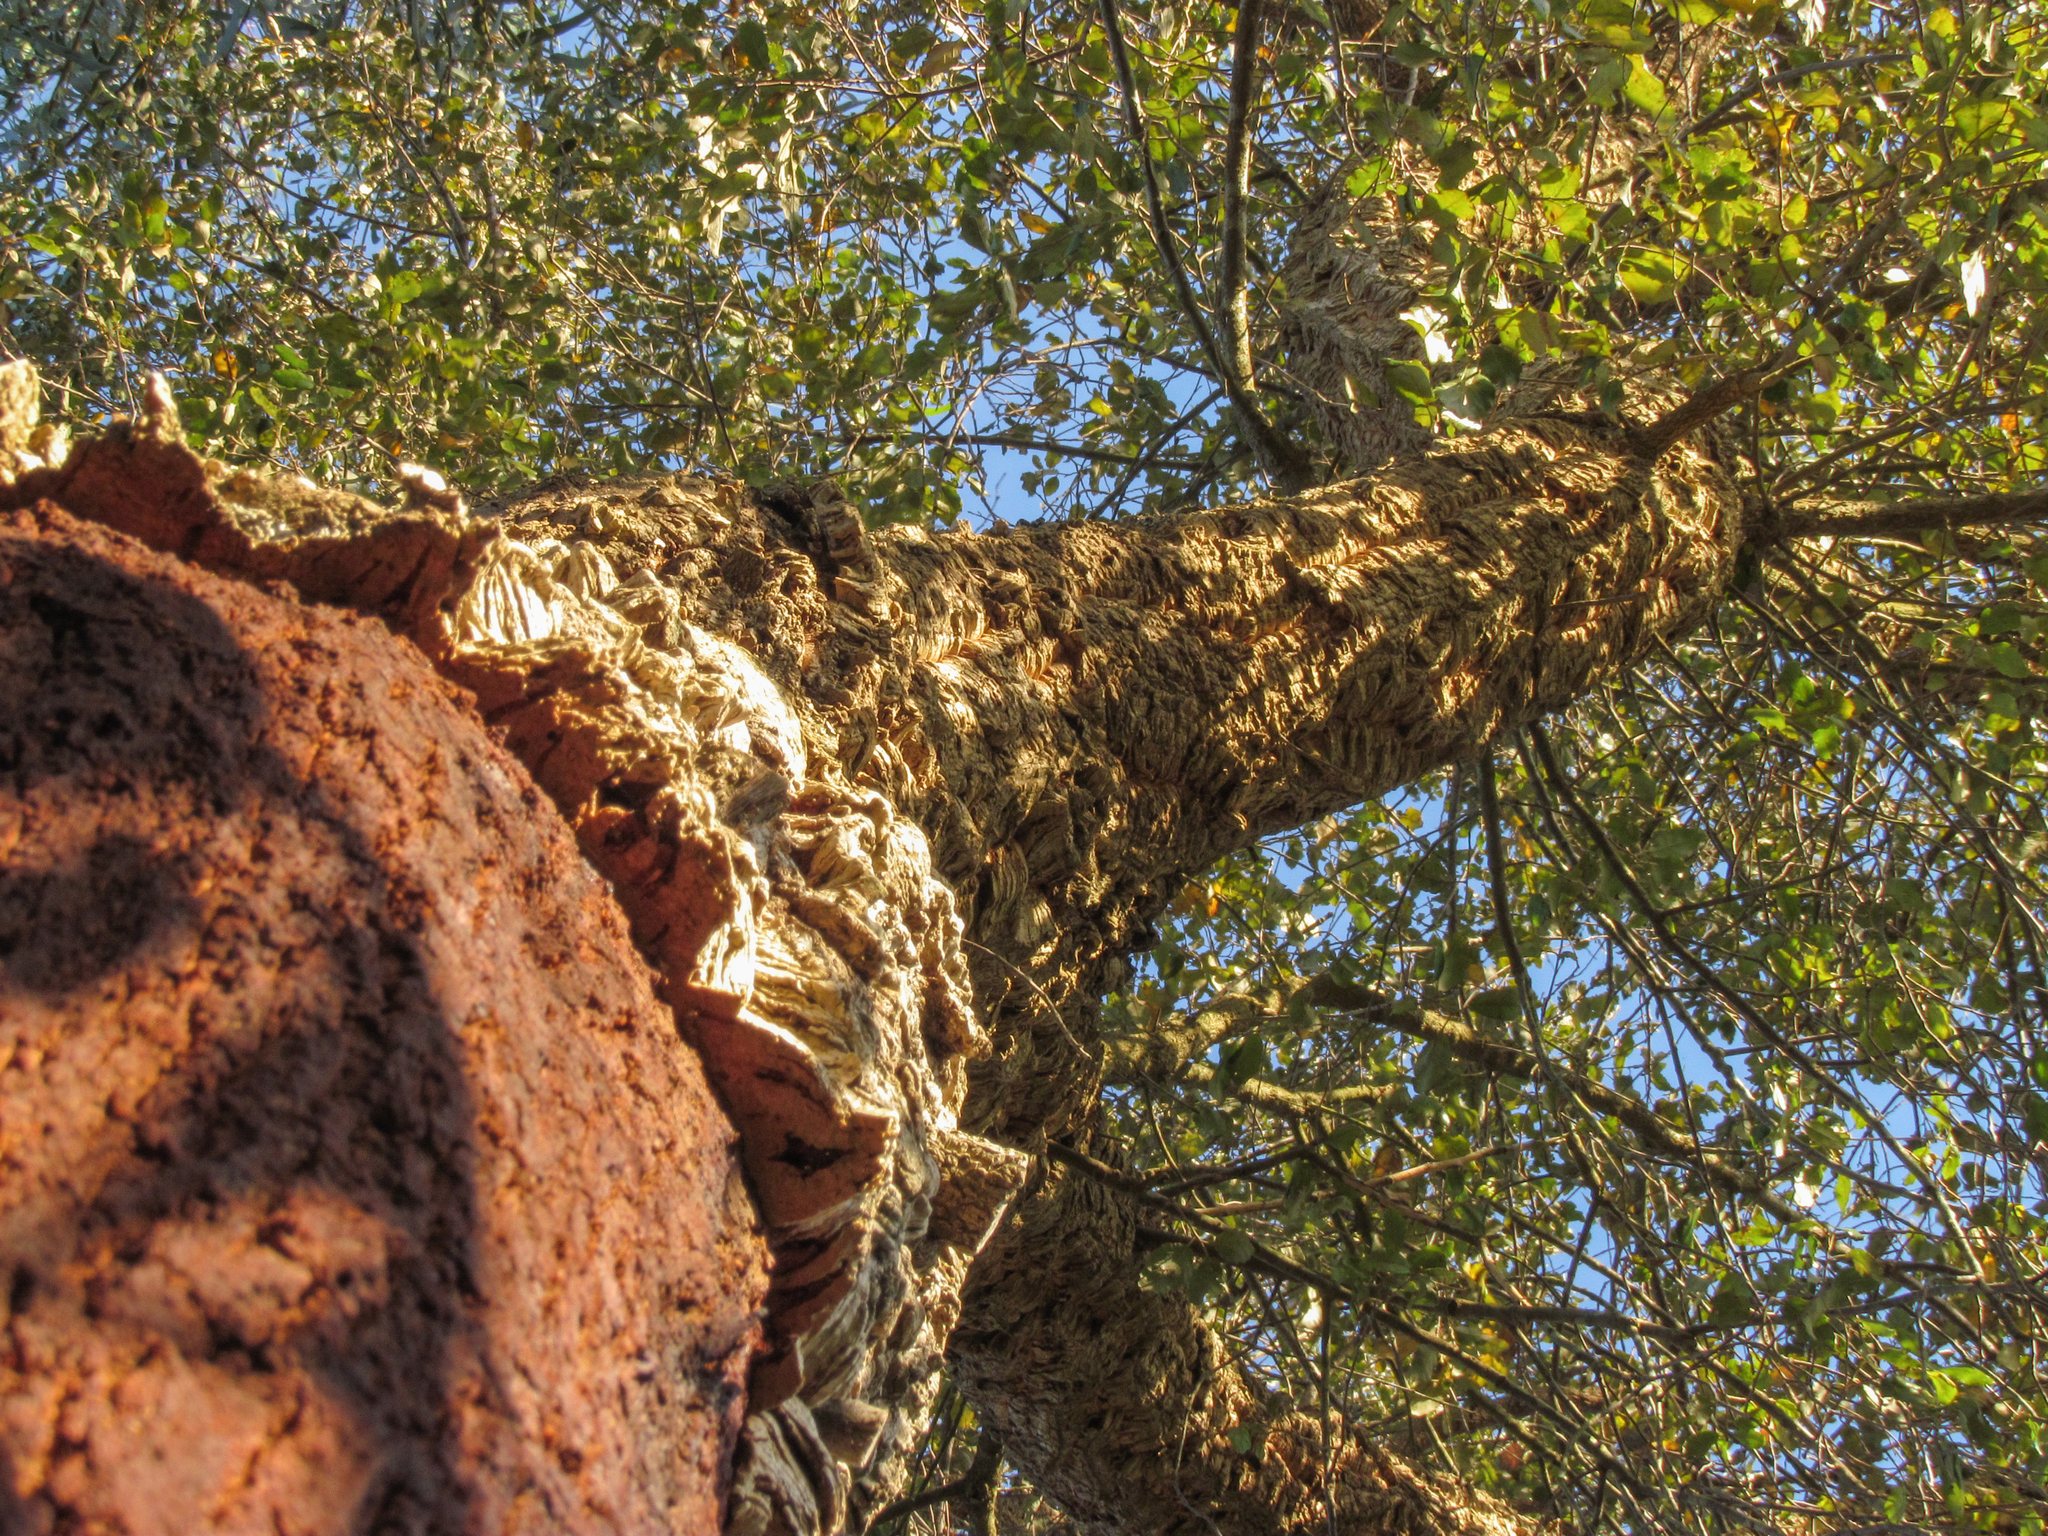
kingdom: Plantae
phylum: Tracheophyta
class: Magnoliopsida
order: Fagales
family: Fagaceae
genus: Quercus
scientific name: Quercus suber
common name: Cork oak
